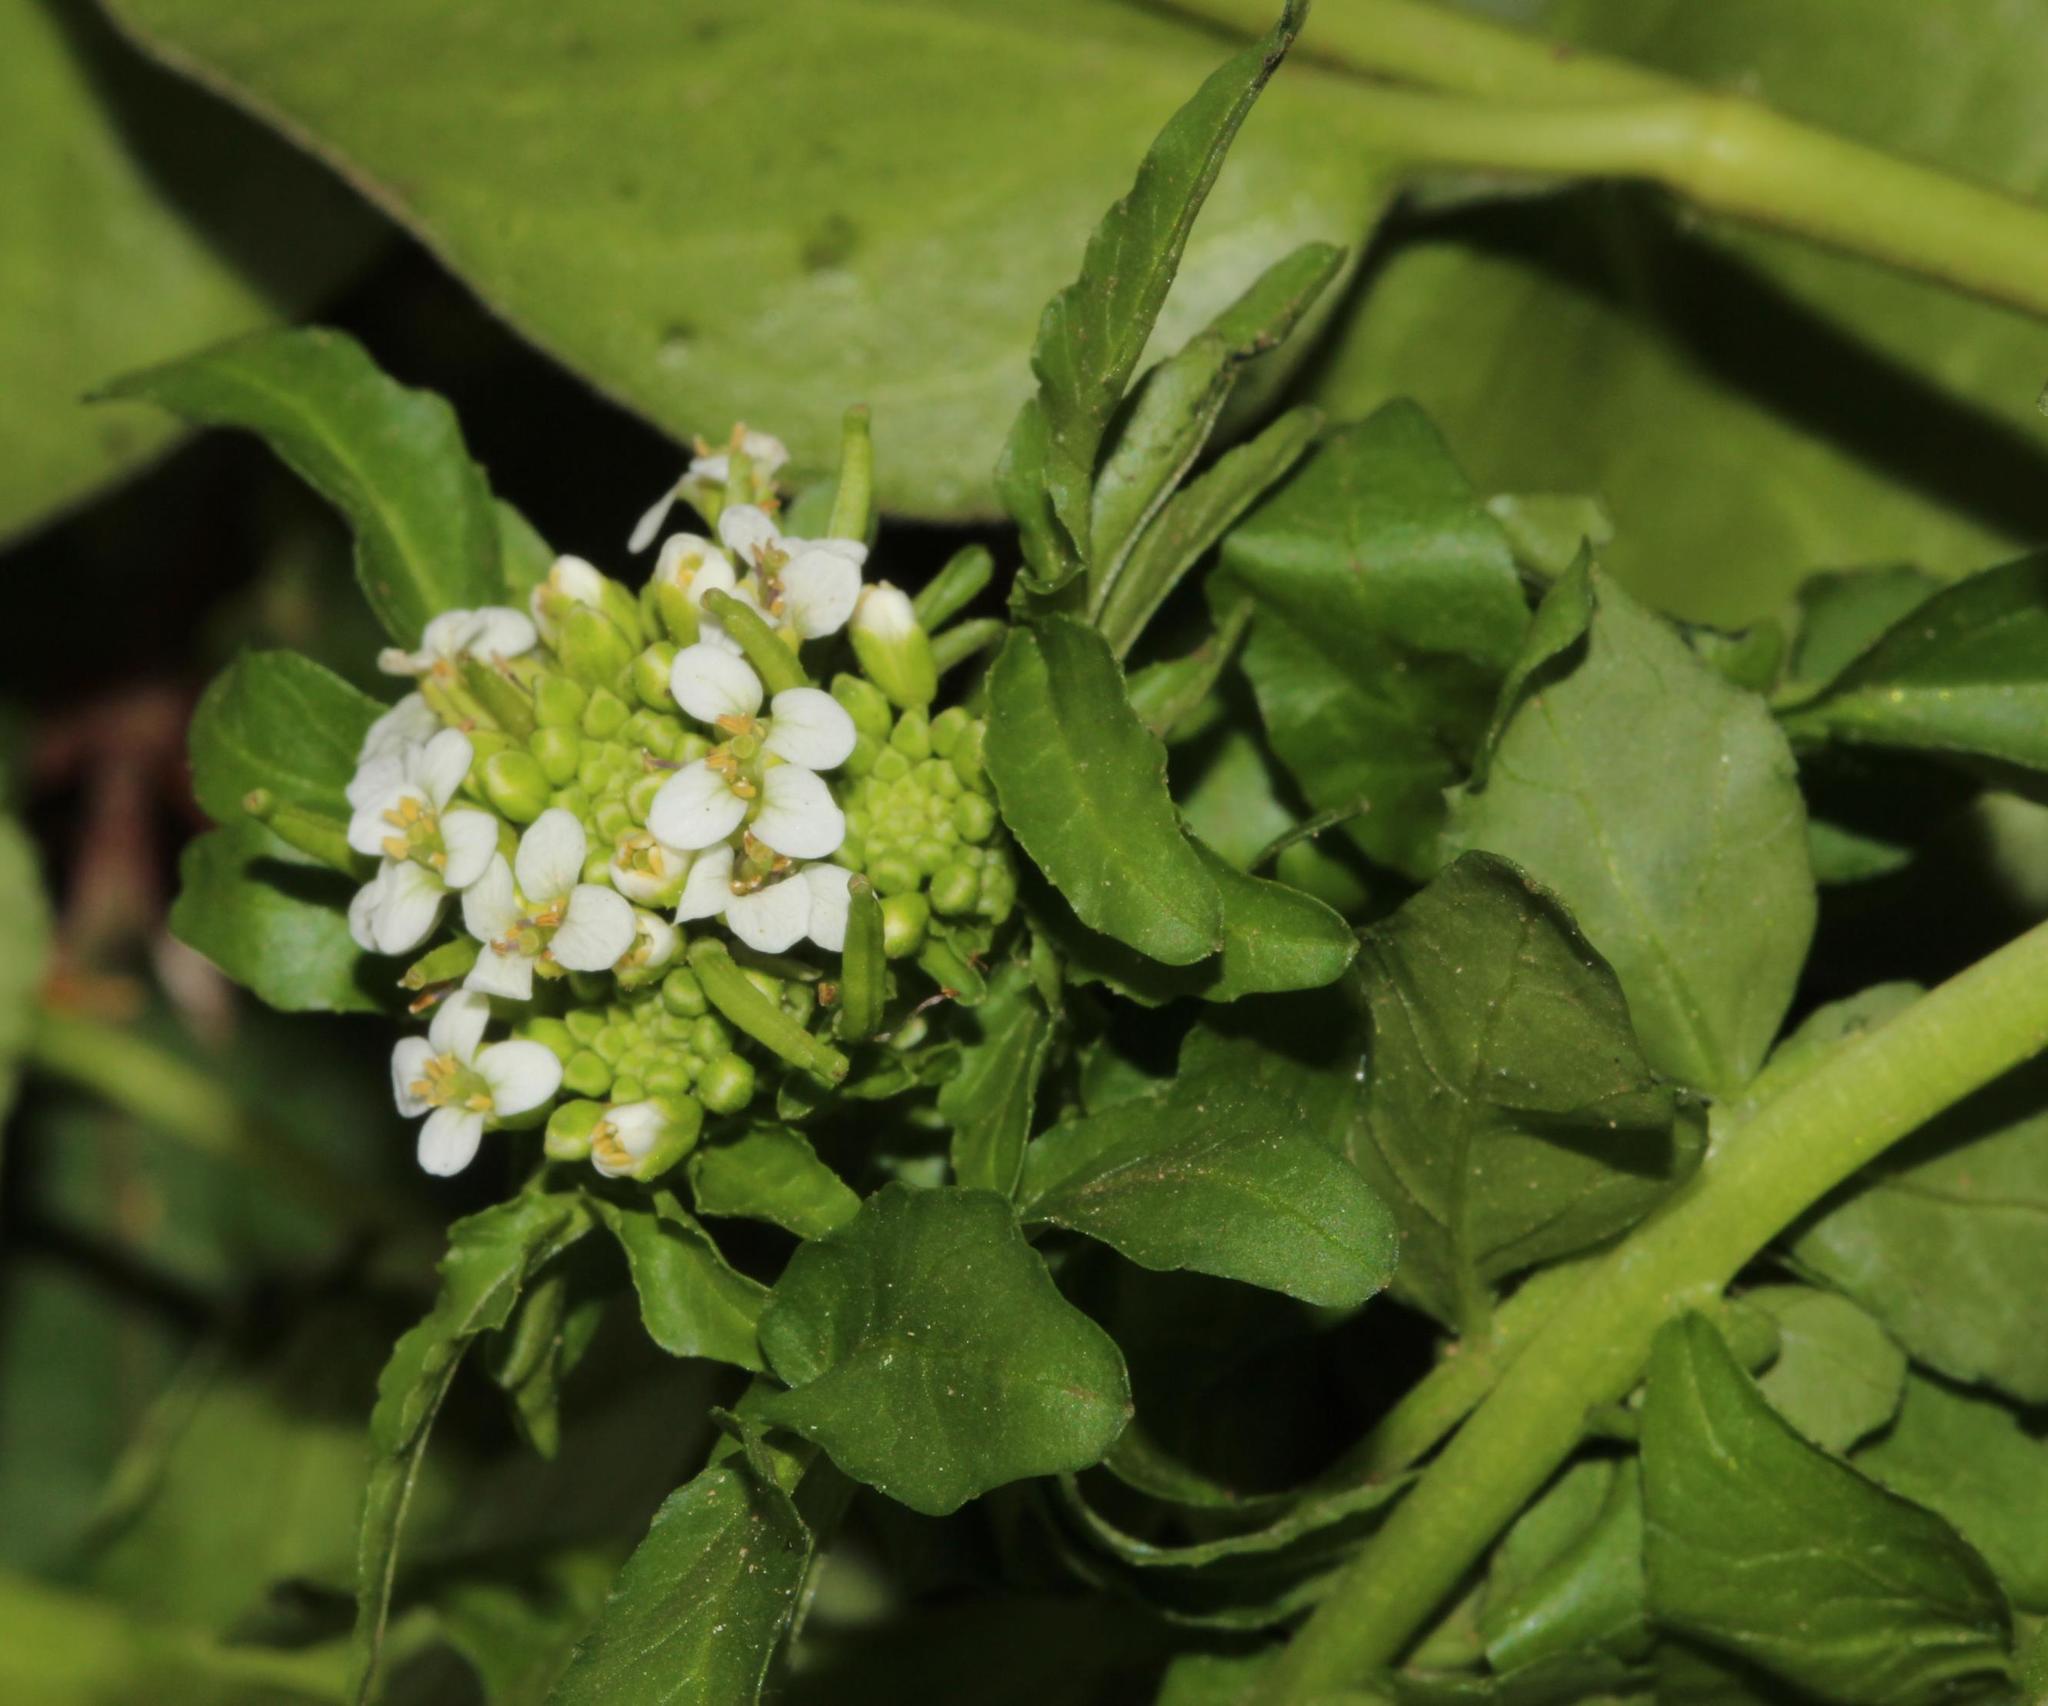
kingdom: Plantae
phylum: Tracheophyta
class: Magnoliopsida
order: Brassicales
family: Brassicaceae
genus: Nasturtium
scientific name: Nasturtium officinale
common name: Watercress
